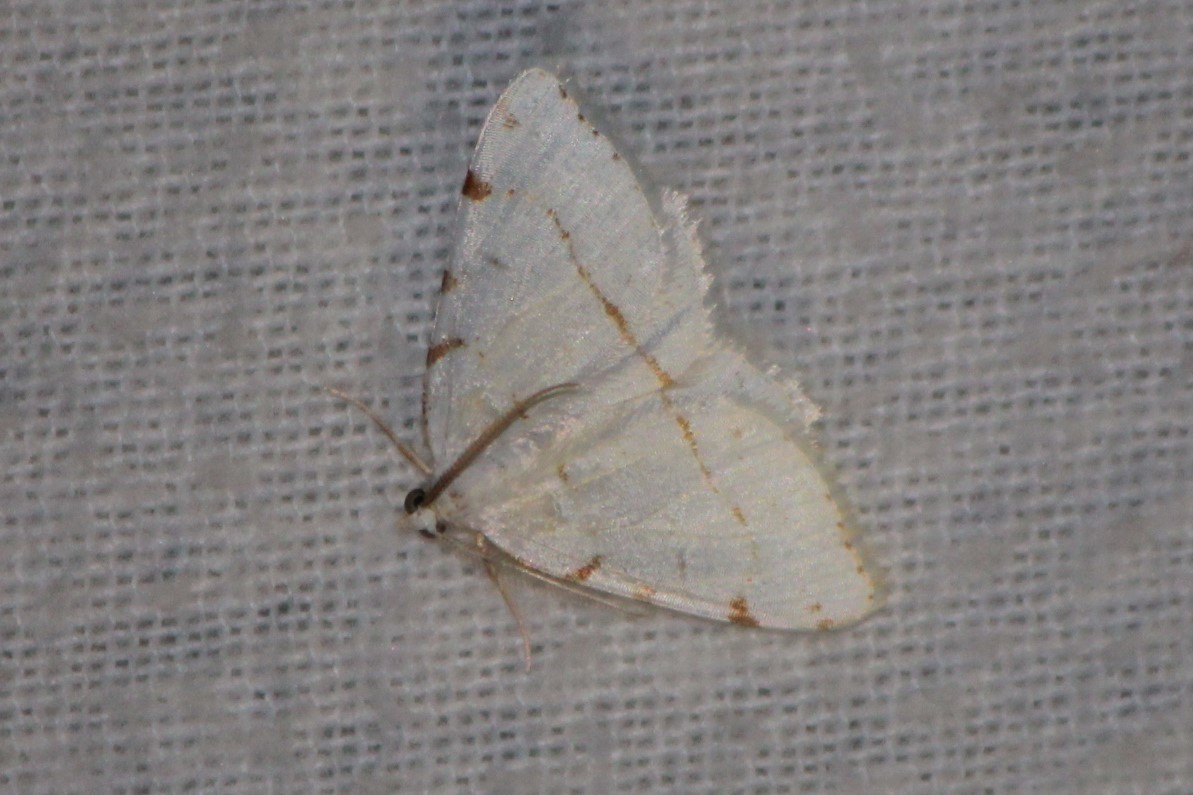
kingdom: Animalia
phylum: Arthropoda
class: Insecta
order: Lepidoptera
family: Geometridae
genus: Macaria
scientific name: Macaria pustularia
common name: Lesser maple spanworm moth
